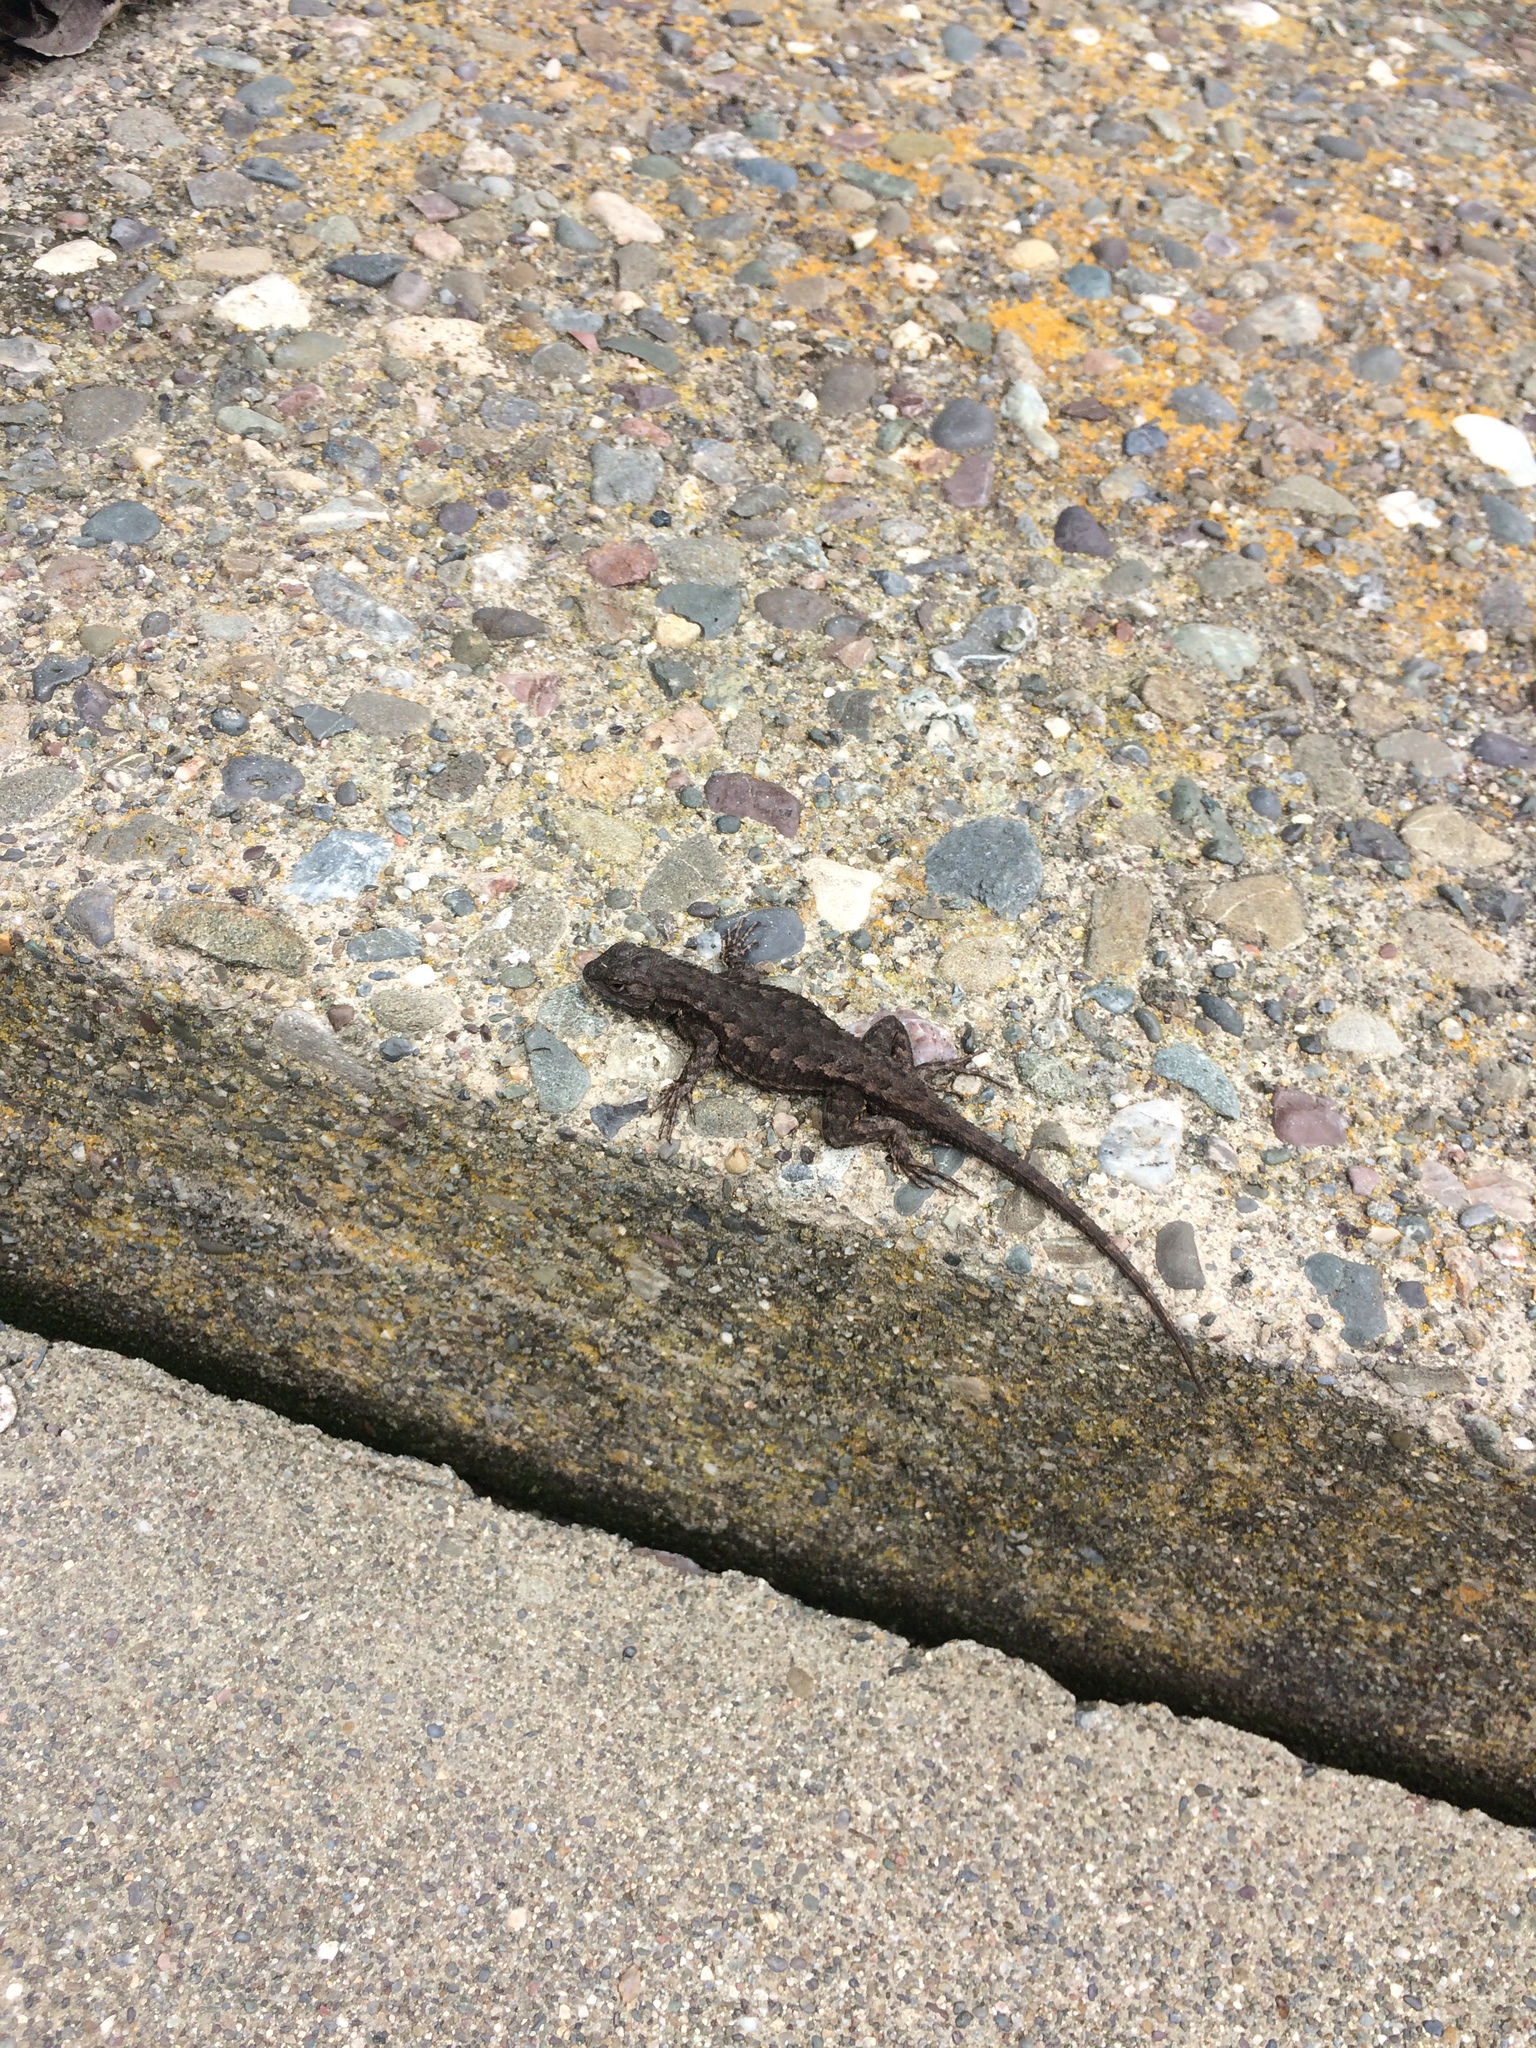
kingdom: Animalia
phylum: Chordata
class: Squamata
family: Phrynosomatidae
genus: Sceloporus
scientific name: Sceloporus occidentalis
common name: Western fence lizard
